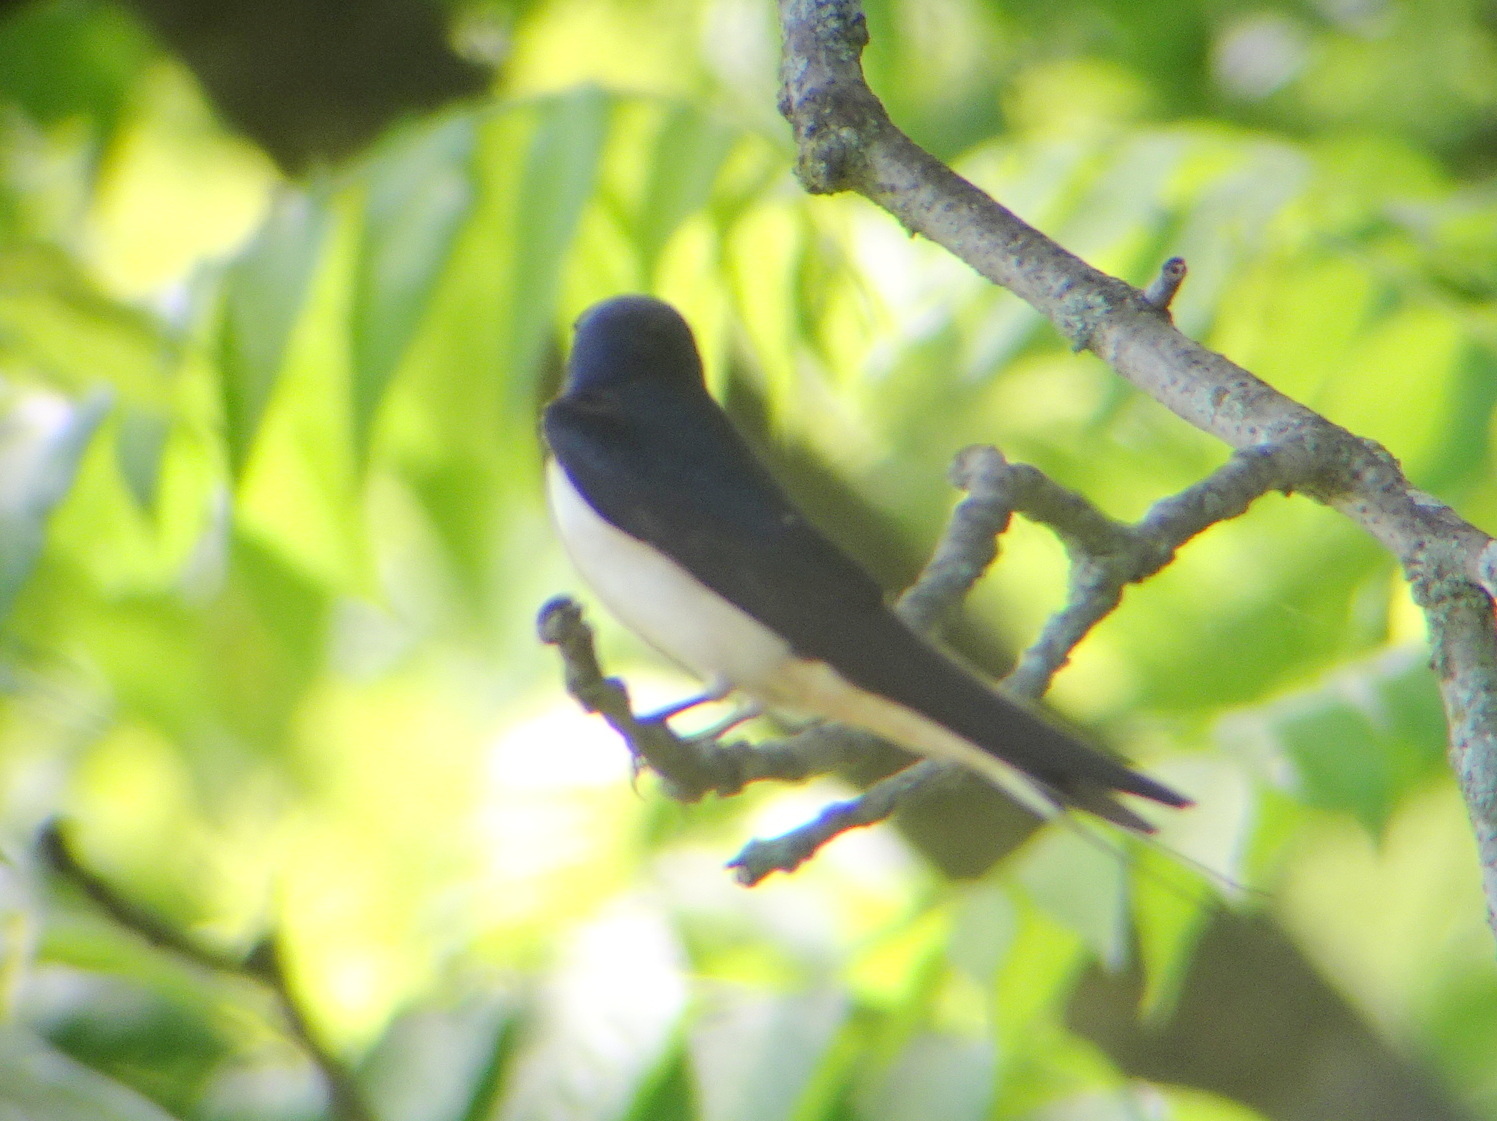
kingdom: Animalia
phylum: Chordata
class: Aves
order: Passeriformes
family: Hirundinidae
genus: Hirundo
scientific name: Hirundo rustica
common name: Barn swallow
